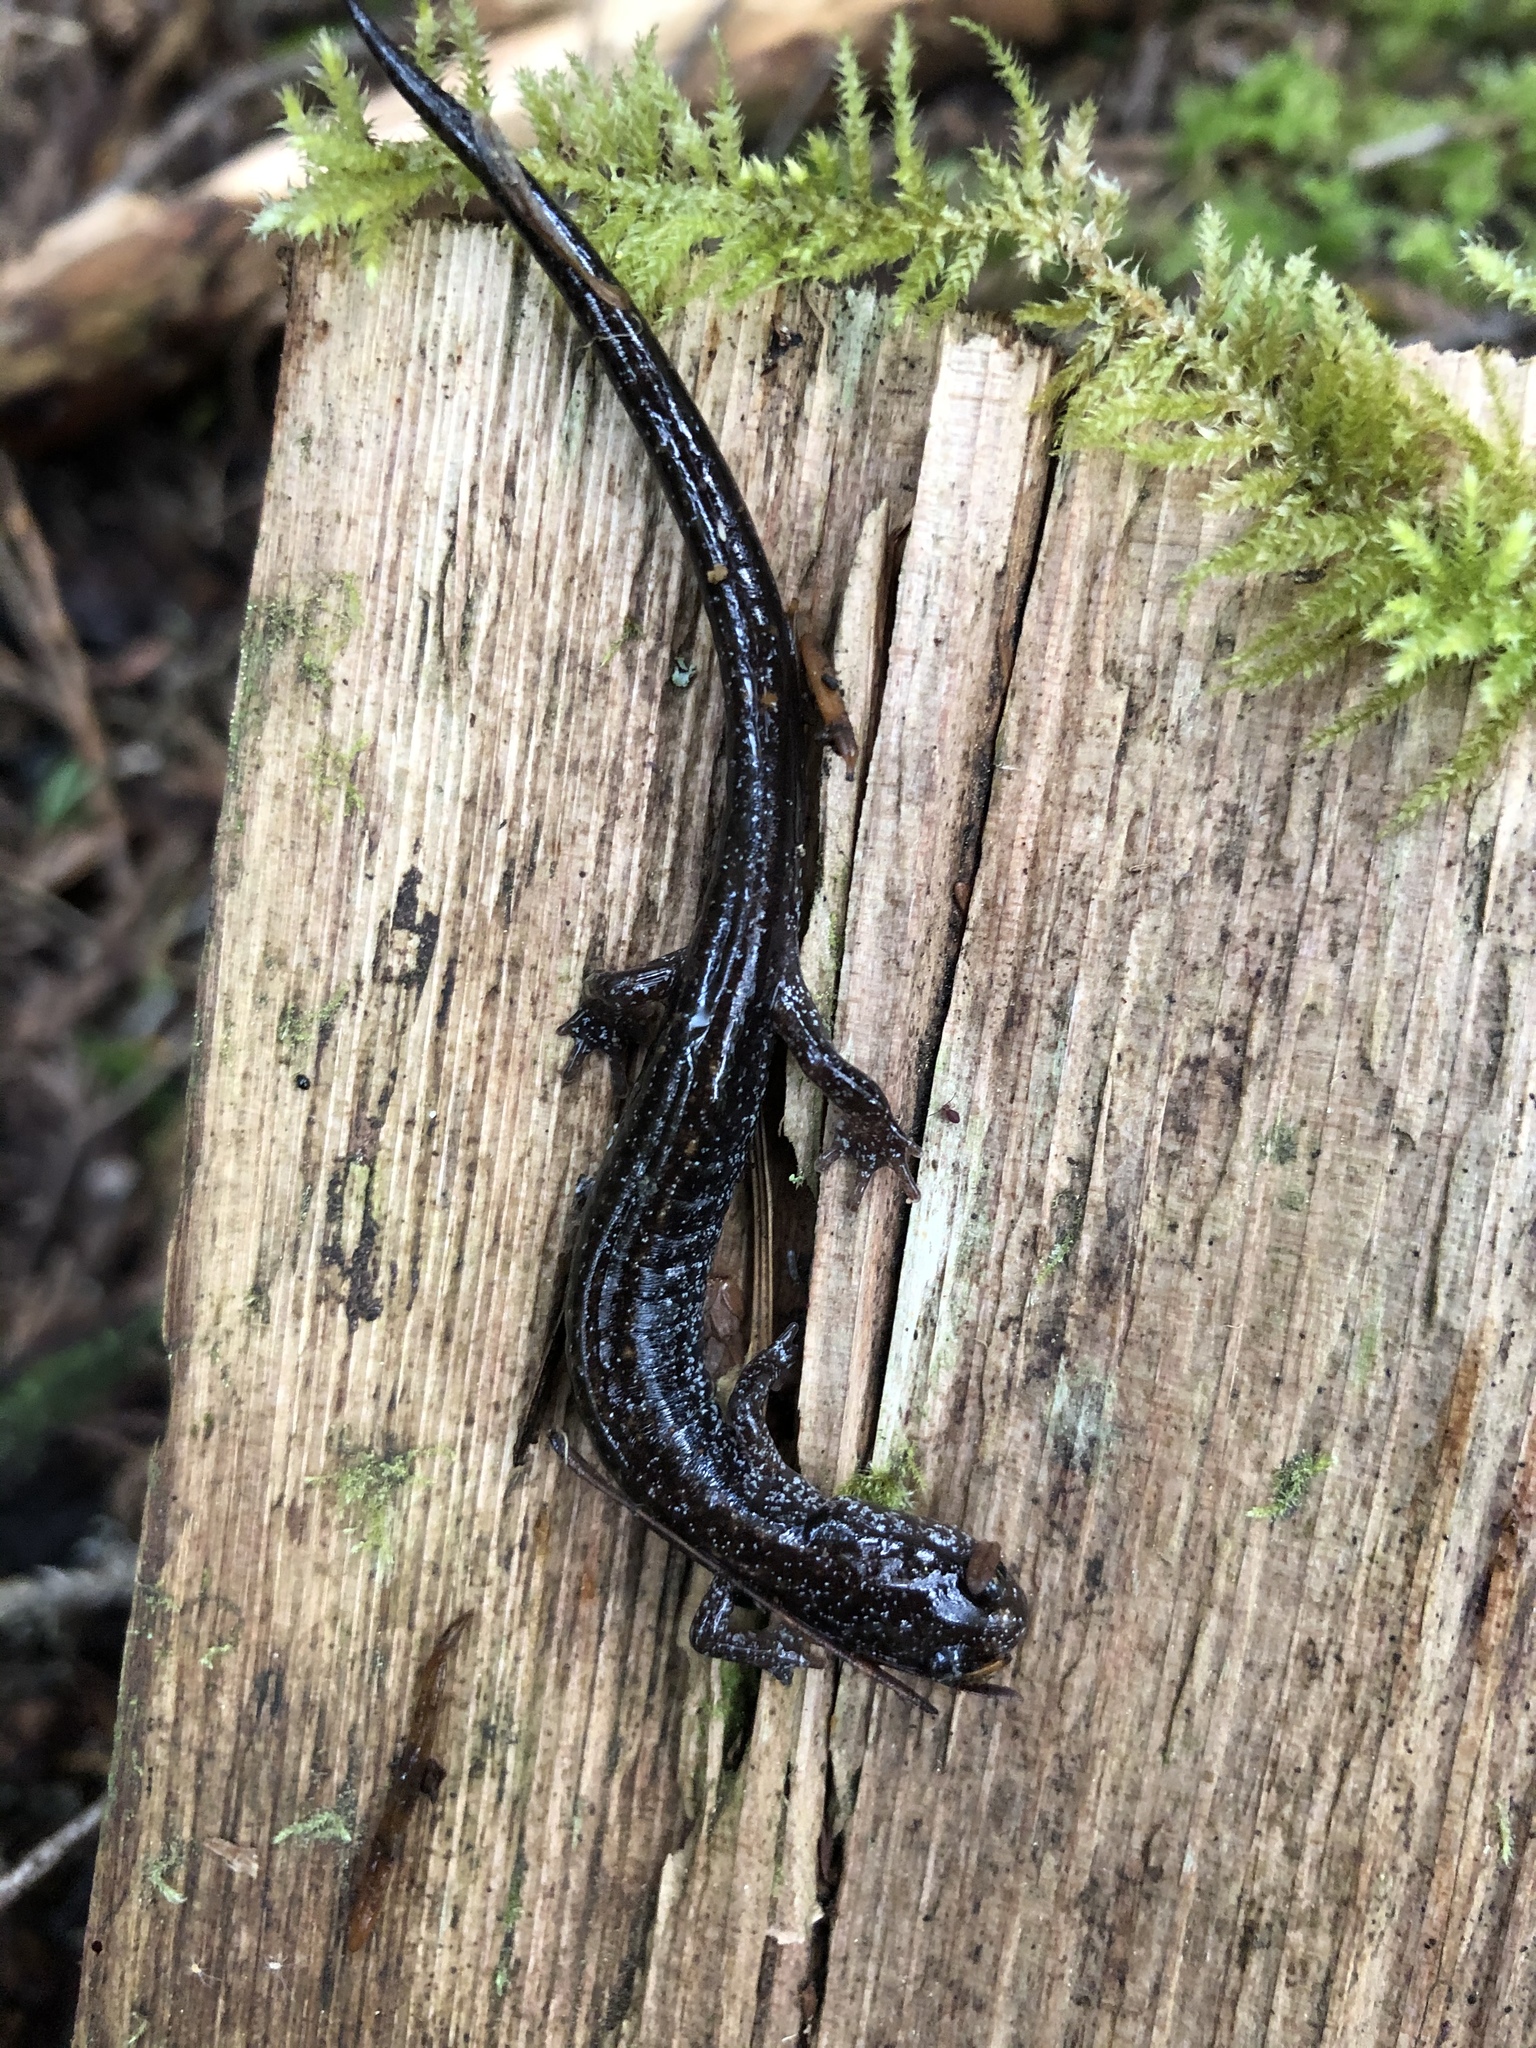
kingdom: Animalia
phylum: Chordata
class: Amphibia
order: Caudata
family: Plethodontidae
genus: Plethodon
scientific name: Plethodon vehiculum
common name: Western red-backed salamander
